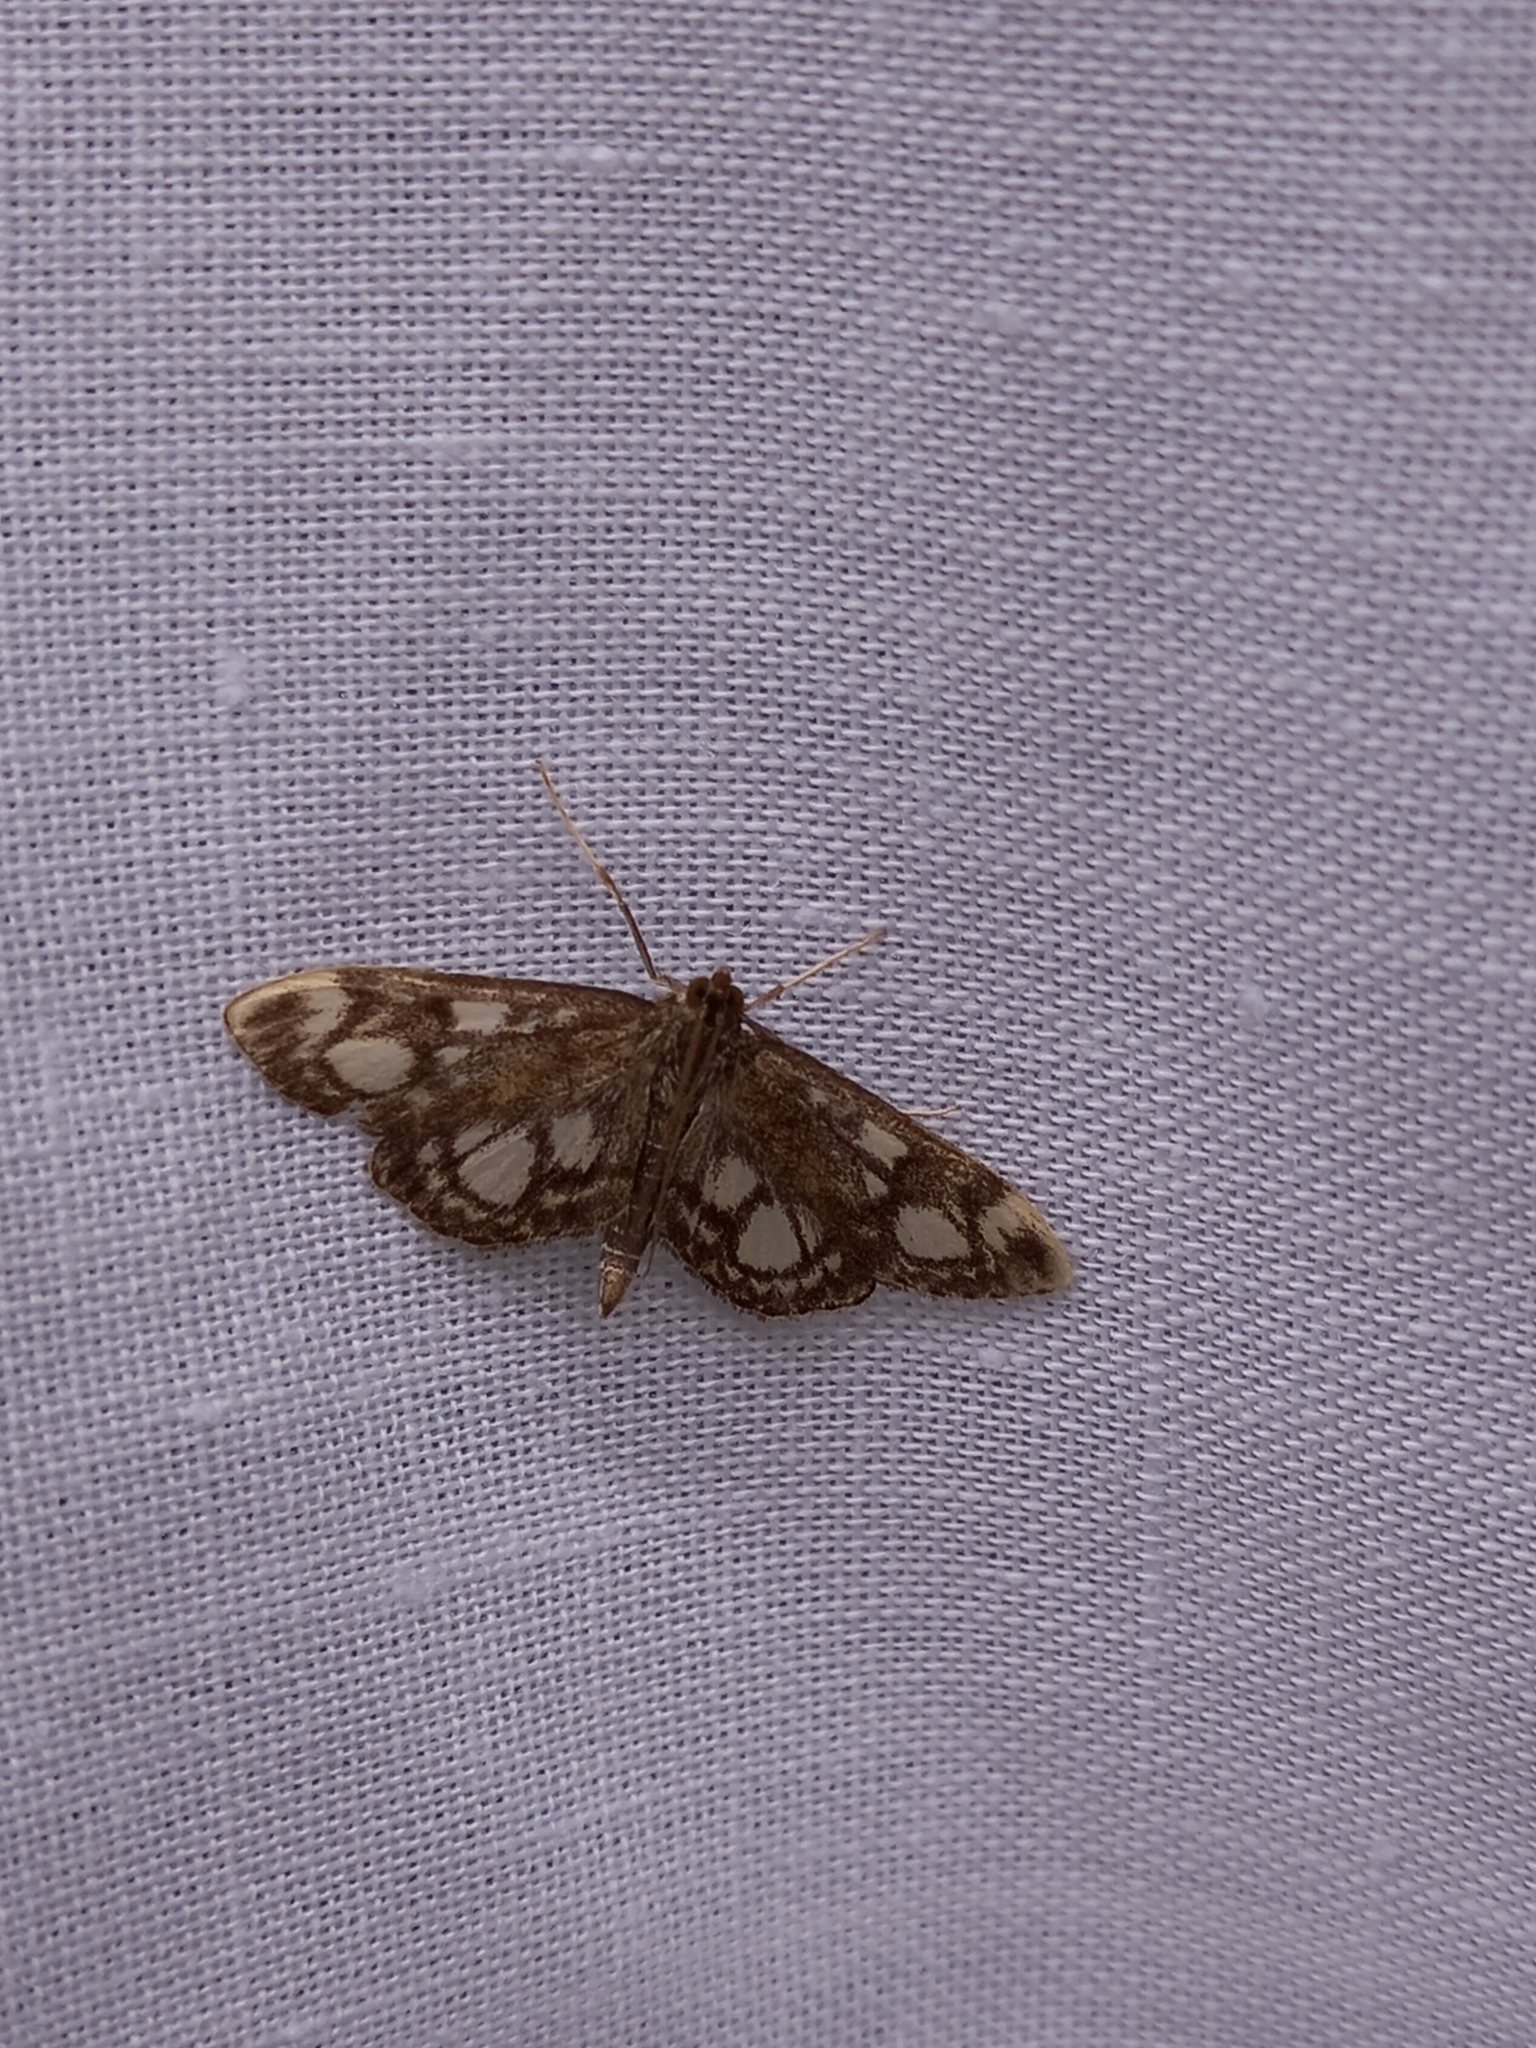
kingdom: Animalia
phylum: Arthropoda
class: Insecta
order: Lepidoptera
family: Crambidae
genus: Anania
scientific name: Anania coronata
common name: Elder pearl
